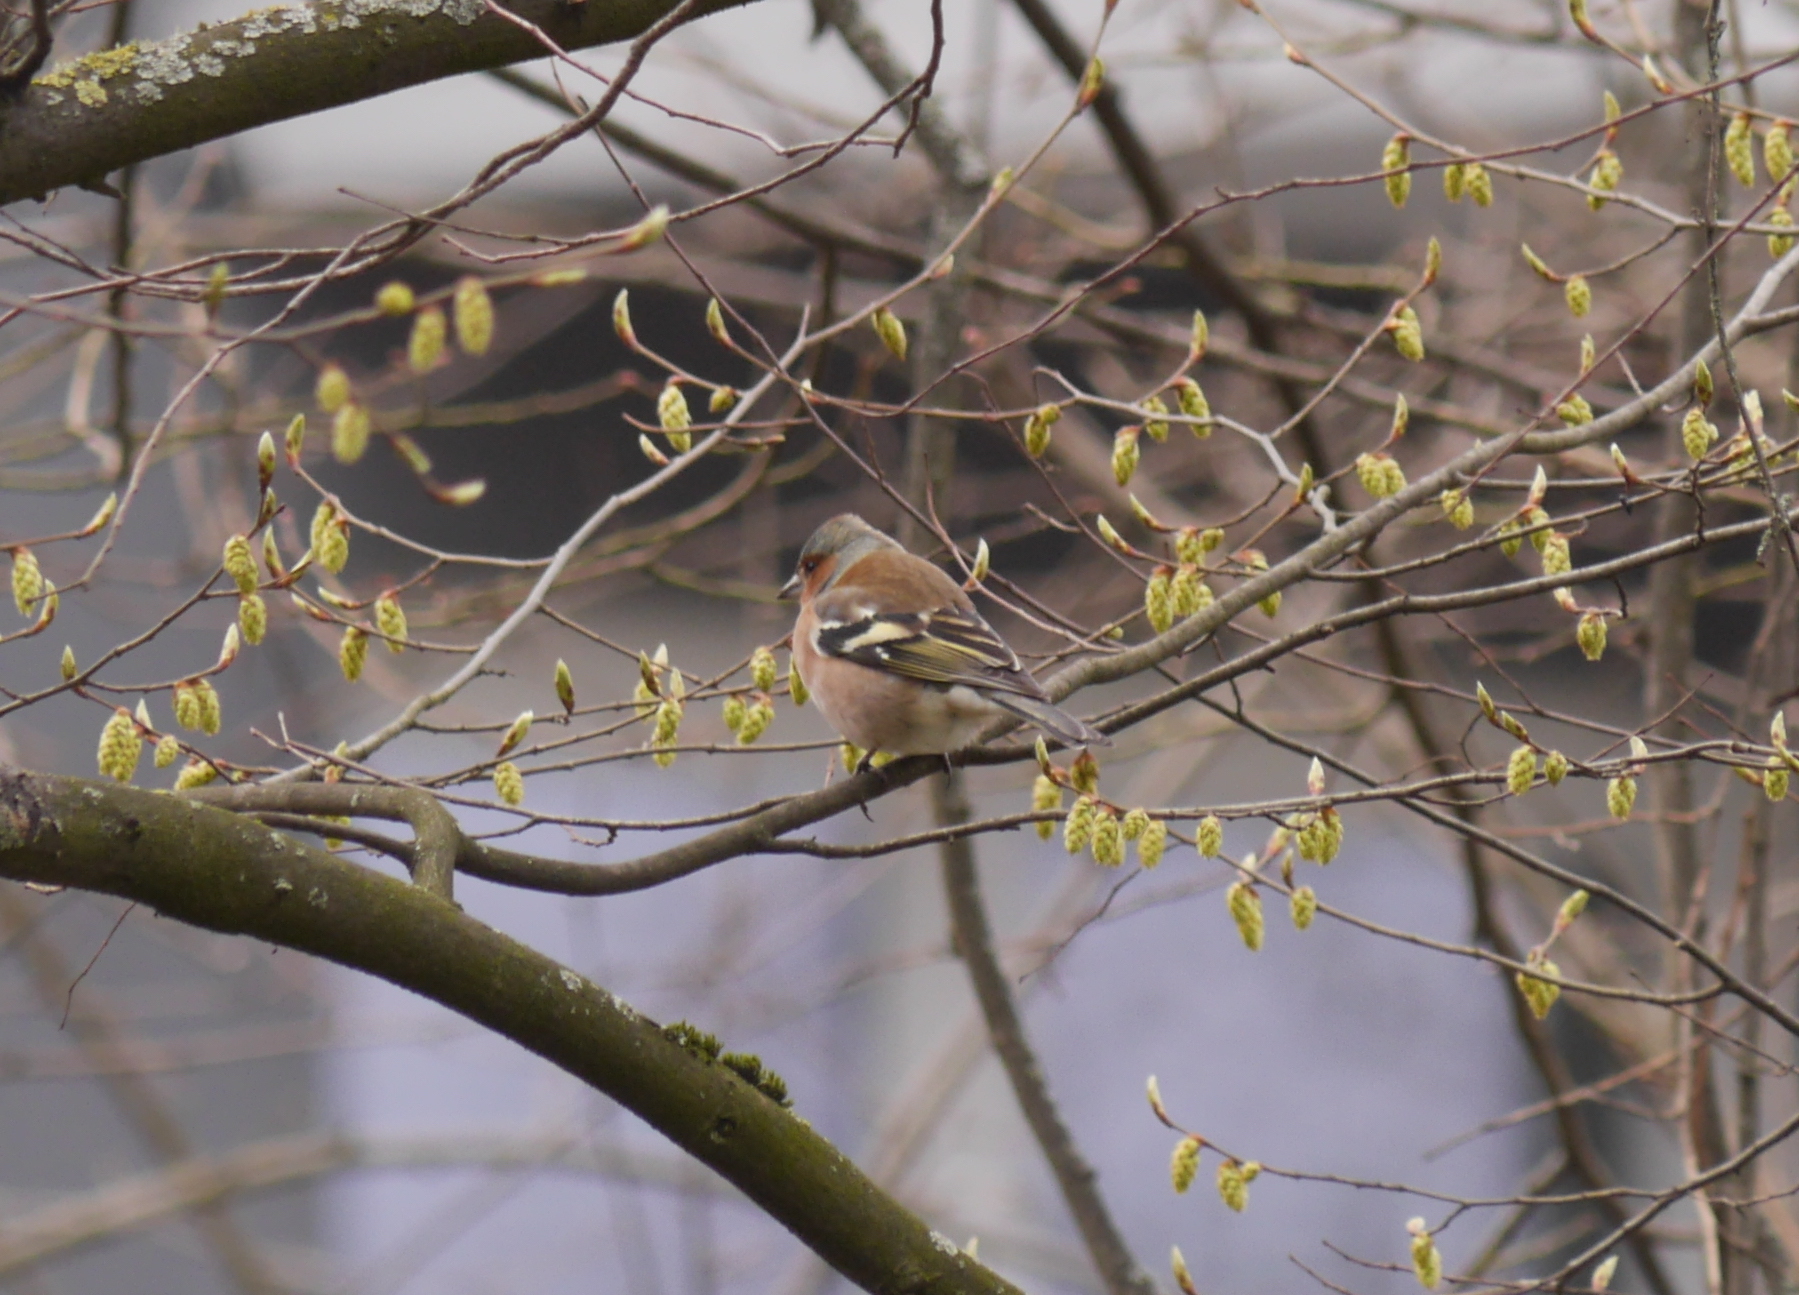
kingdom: Animalia
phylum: Chordata
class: Aves
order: Passeriformes
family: Fringillidae
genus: Fringilla
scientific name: Fringilla coelebs
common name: Common chaffinch
